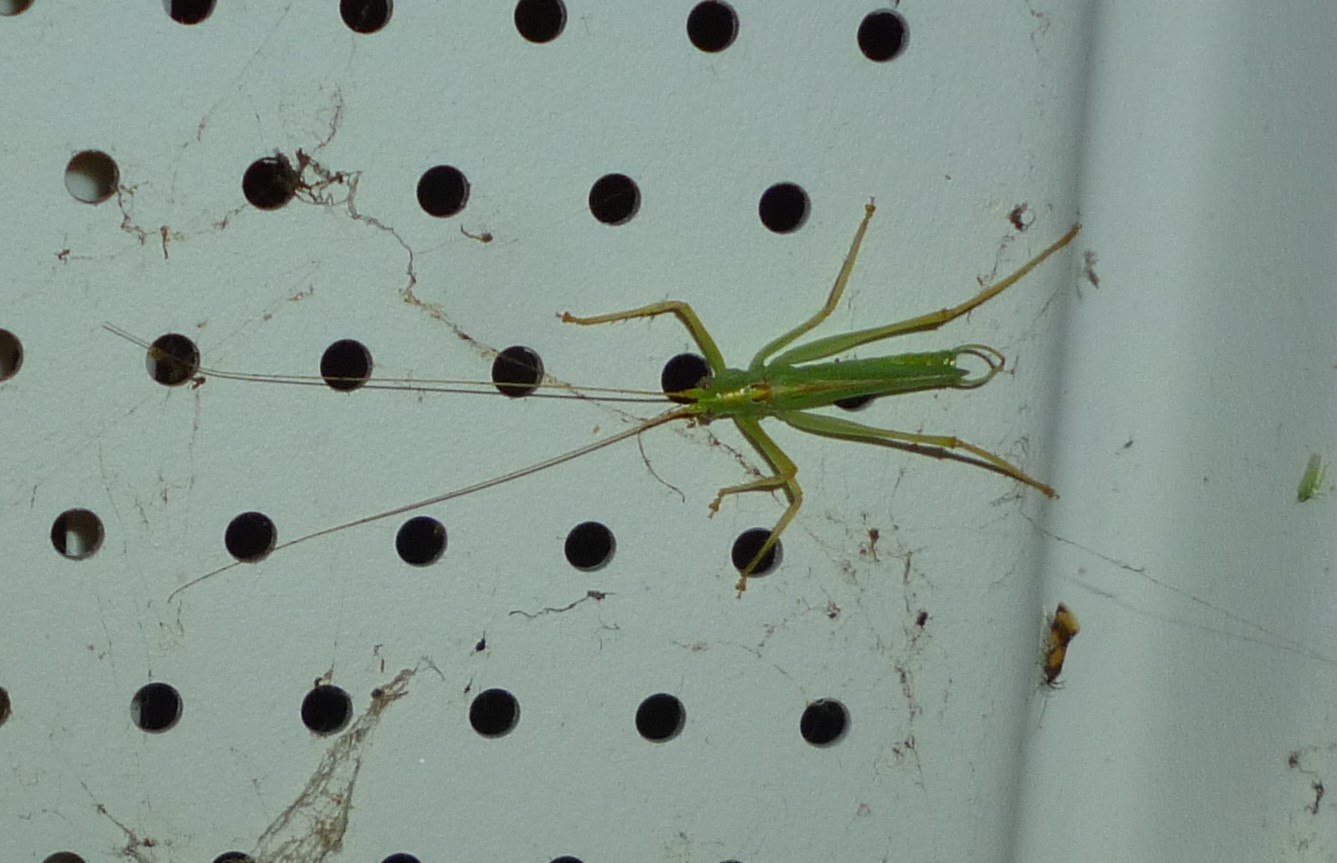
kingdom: Animalia
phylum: Arthropoda
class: Insecta
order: Orthoptera
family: Tettigoniidae
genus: Meconema
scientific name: Meconema thalassinum
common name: Oak bush-cricket
